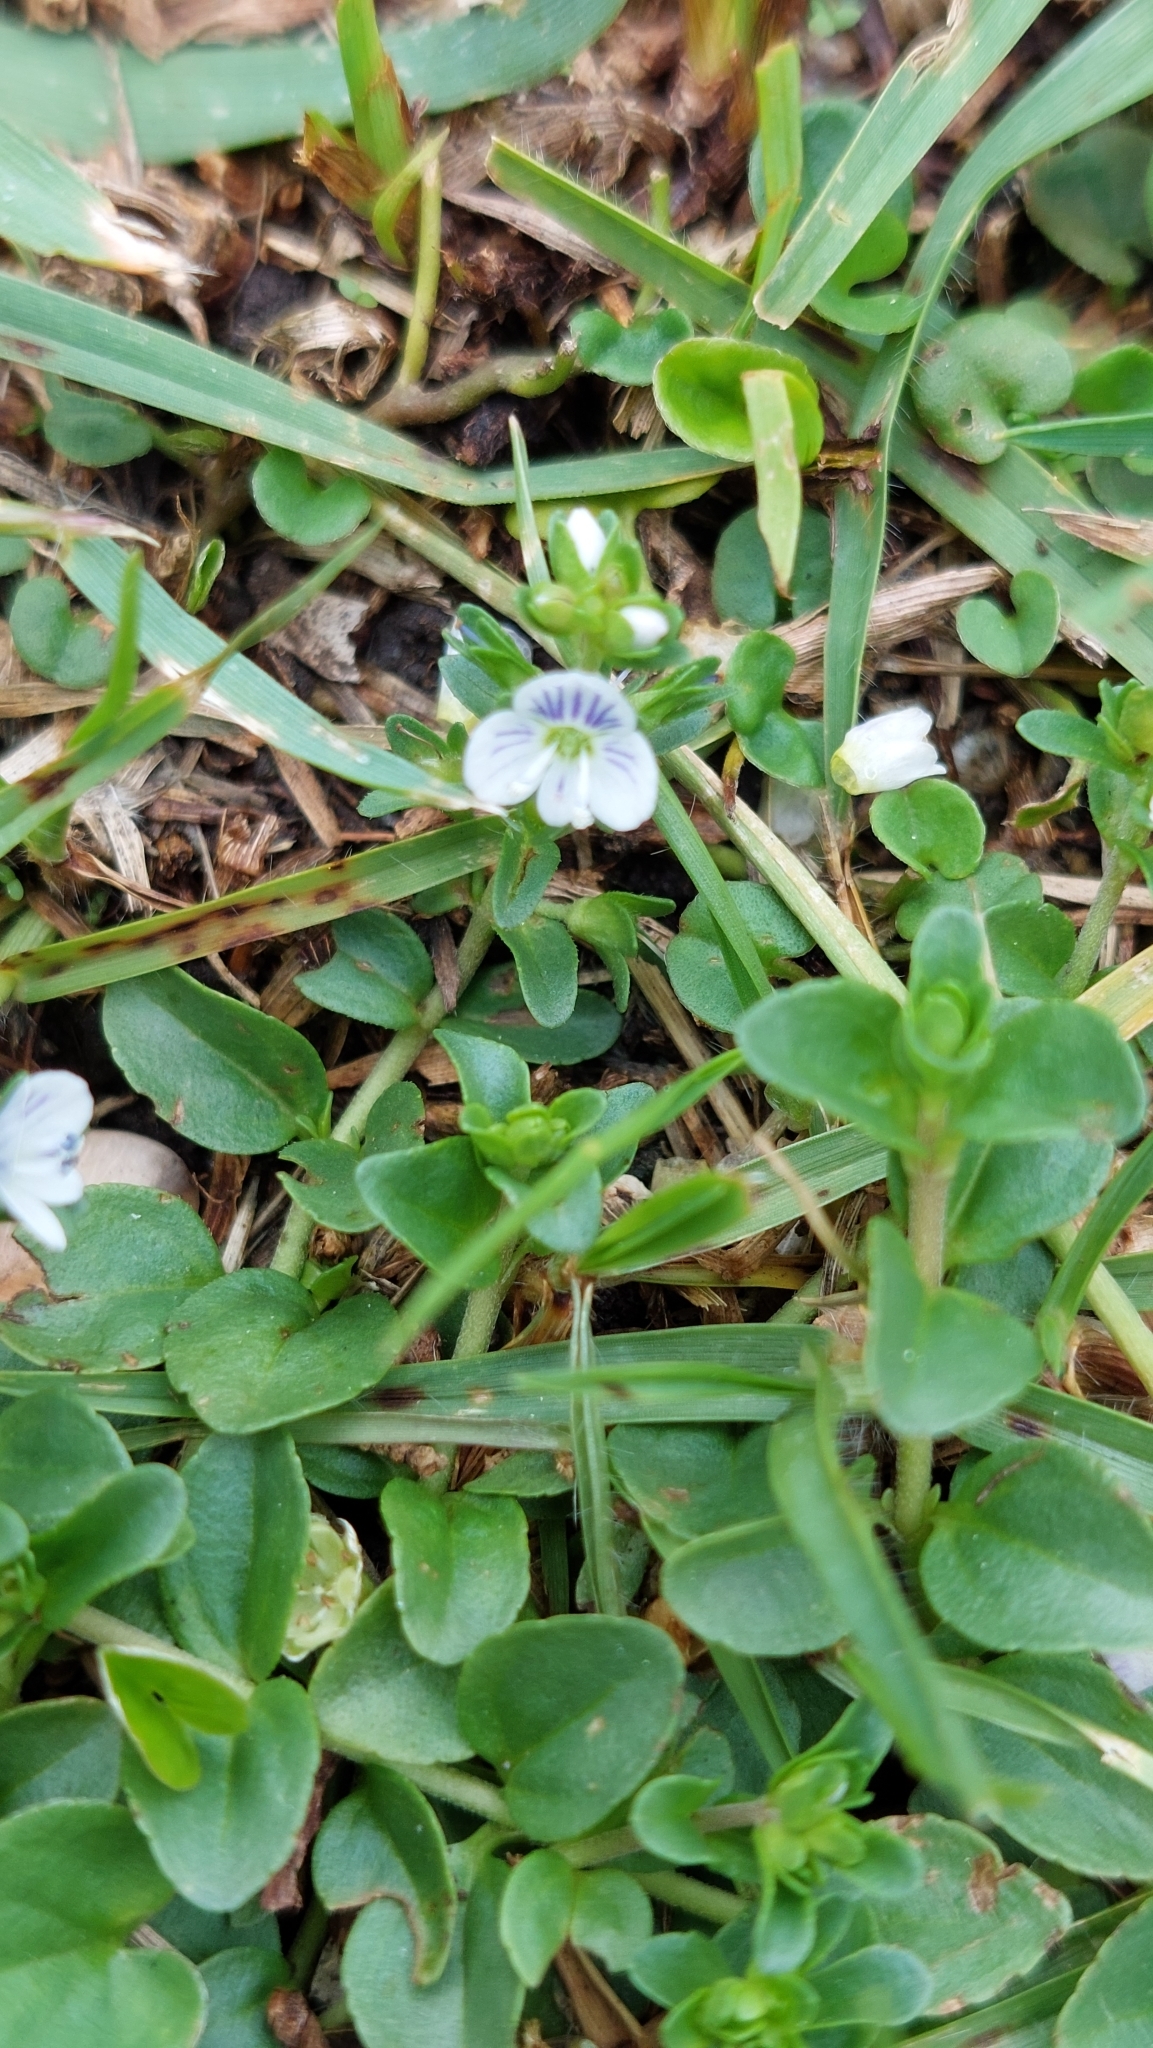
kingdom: Plantae
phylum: Tracheophyta
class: Magnoliopsida
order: Lamiales
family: Plantaginaceae
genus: Veronica
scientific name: Veronica serpyllifolia
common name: Thyme-leaved speedwell
